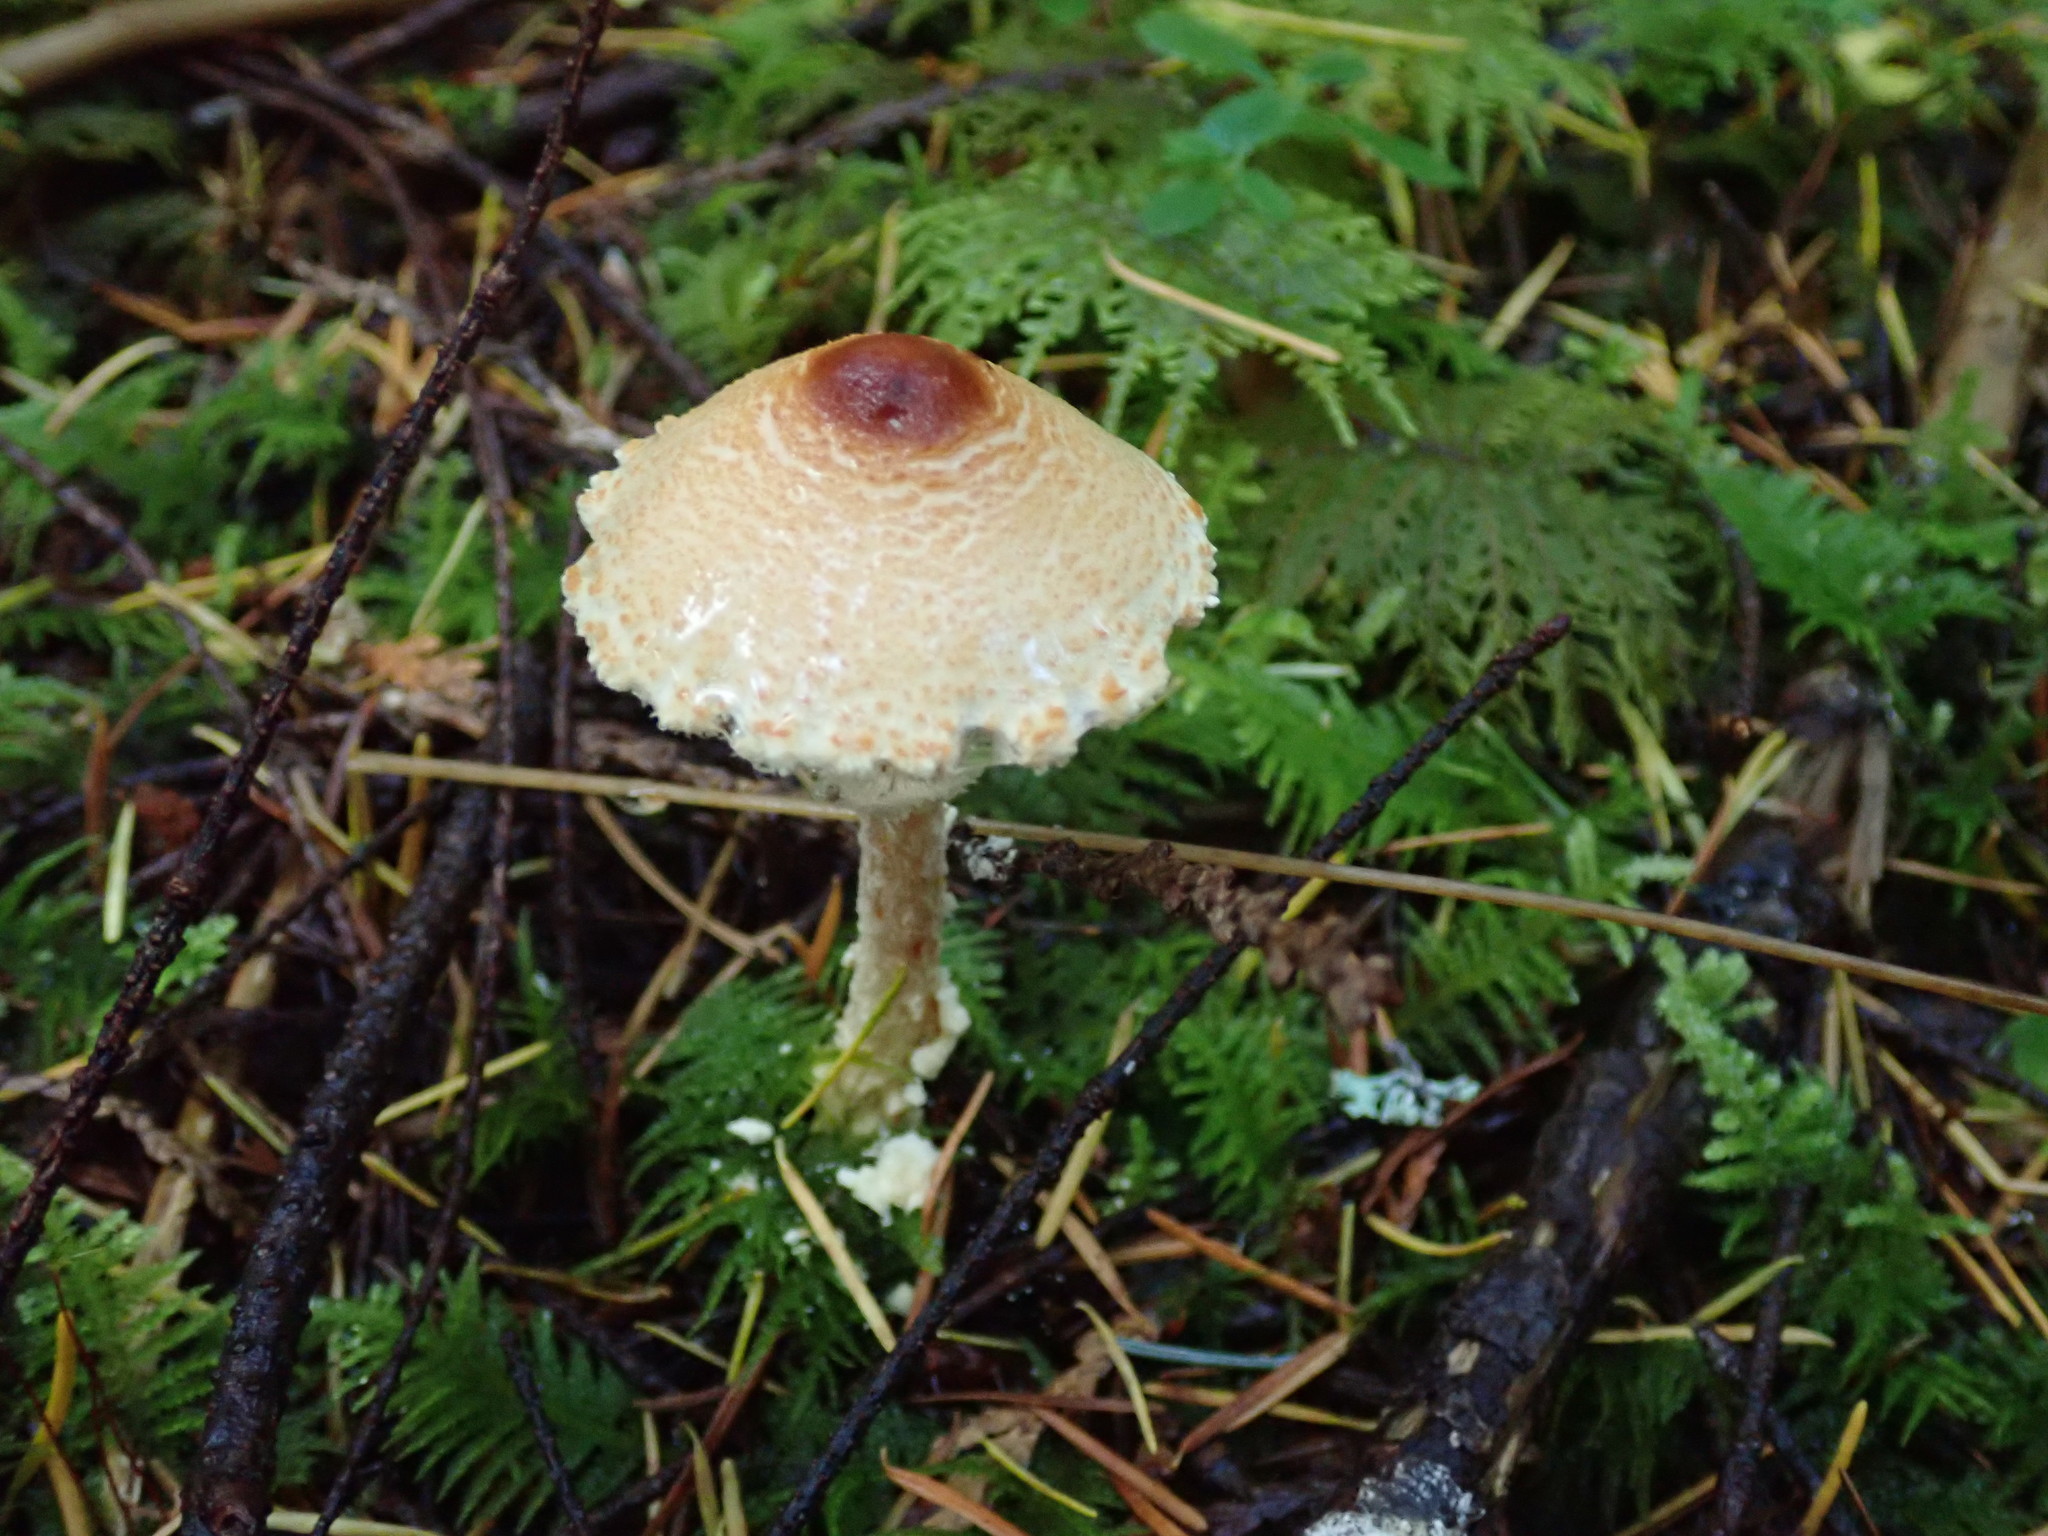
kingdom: Fungi
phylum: Basidiomycota
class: Agaricomycetes
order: Agaricales
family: Agaricaceae
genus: Lepiota
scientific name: Lepiota magnispora
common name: Yellowfoot dapperling
